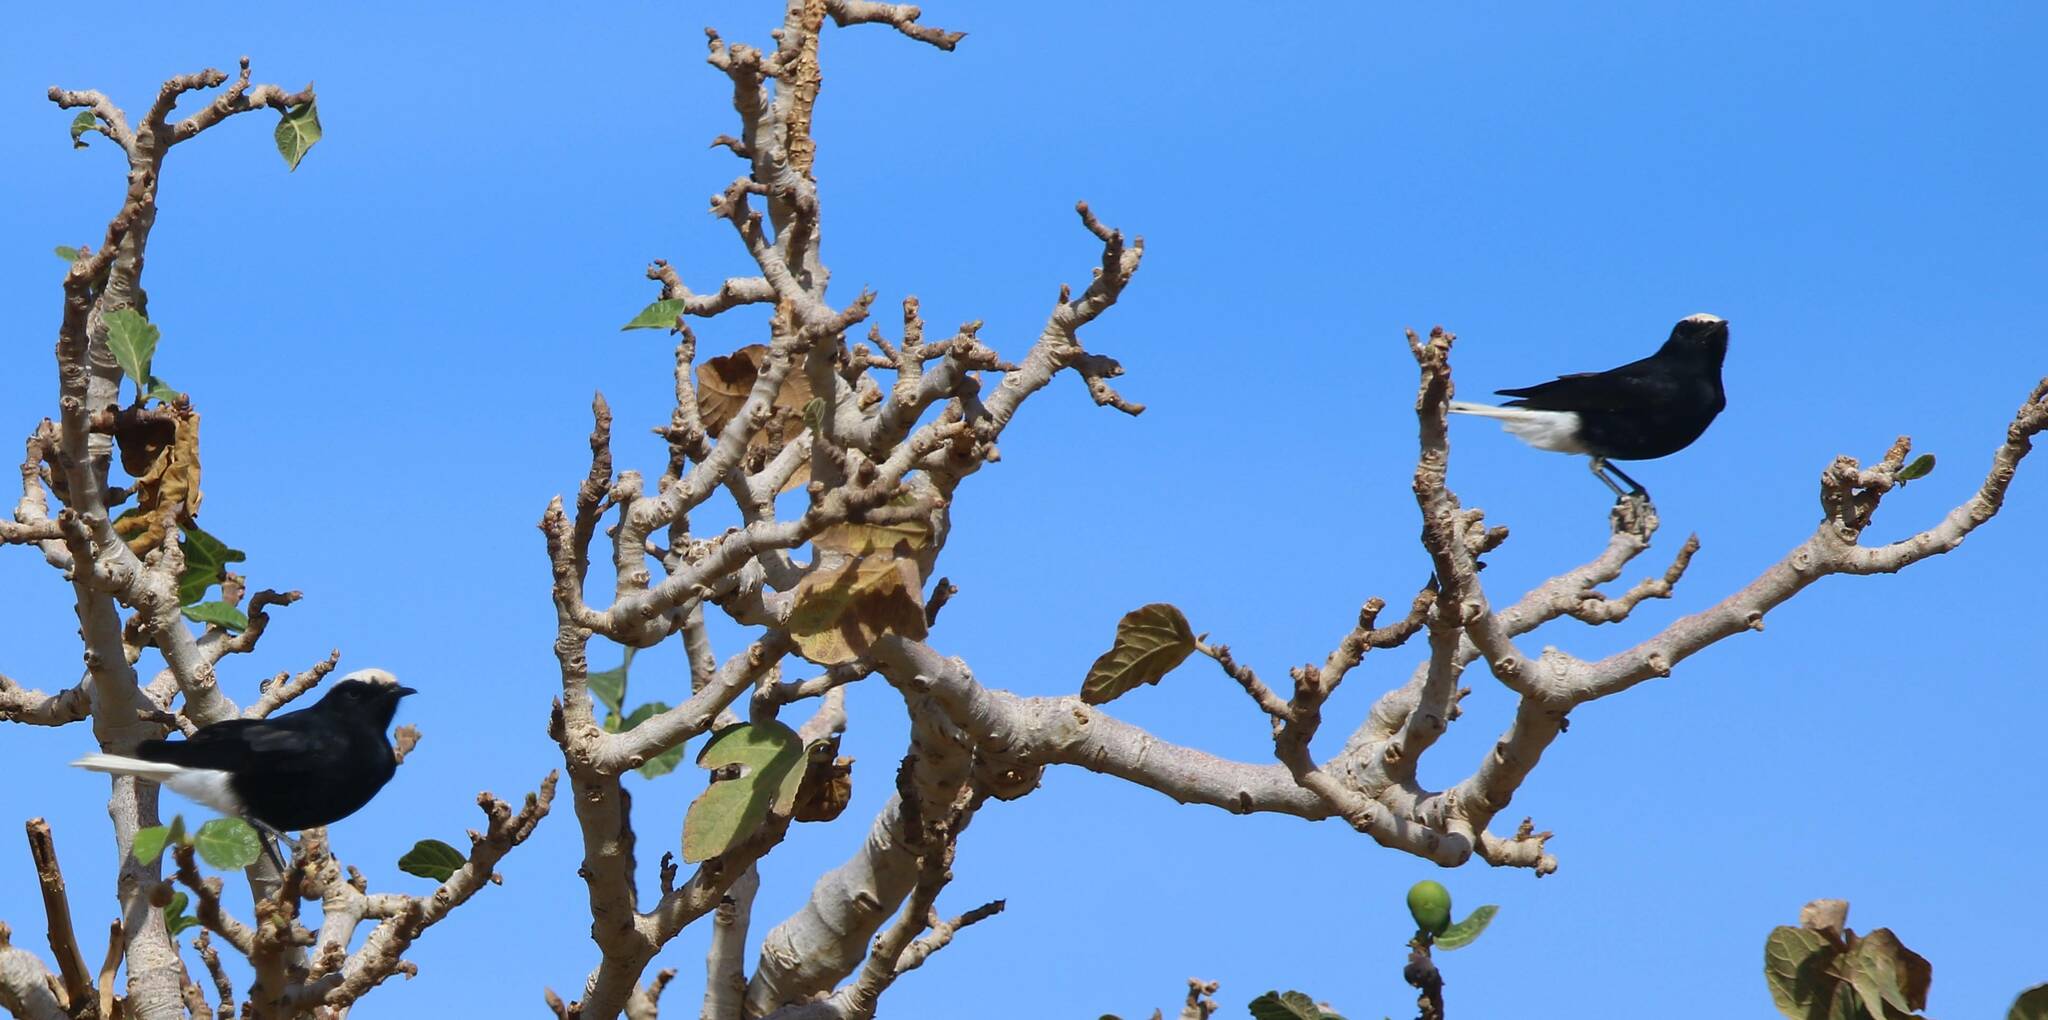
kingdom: Animalia
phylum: Chordata
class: Aves
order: Passeriformes
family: Muscicapidae
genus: Oenanthe
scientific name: Oenanthe leucopyga
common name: White-crowned wheatear
